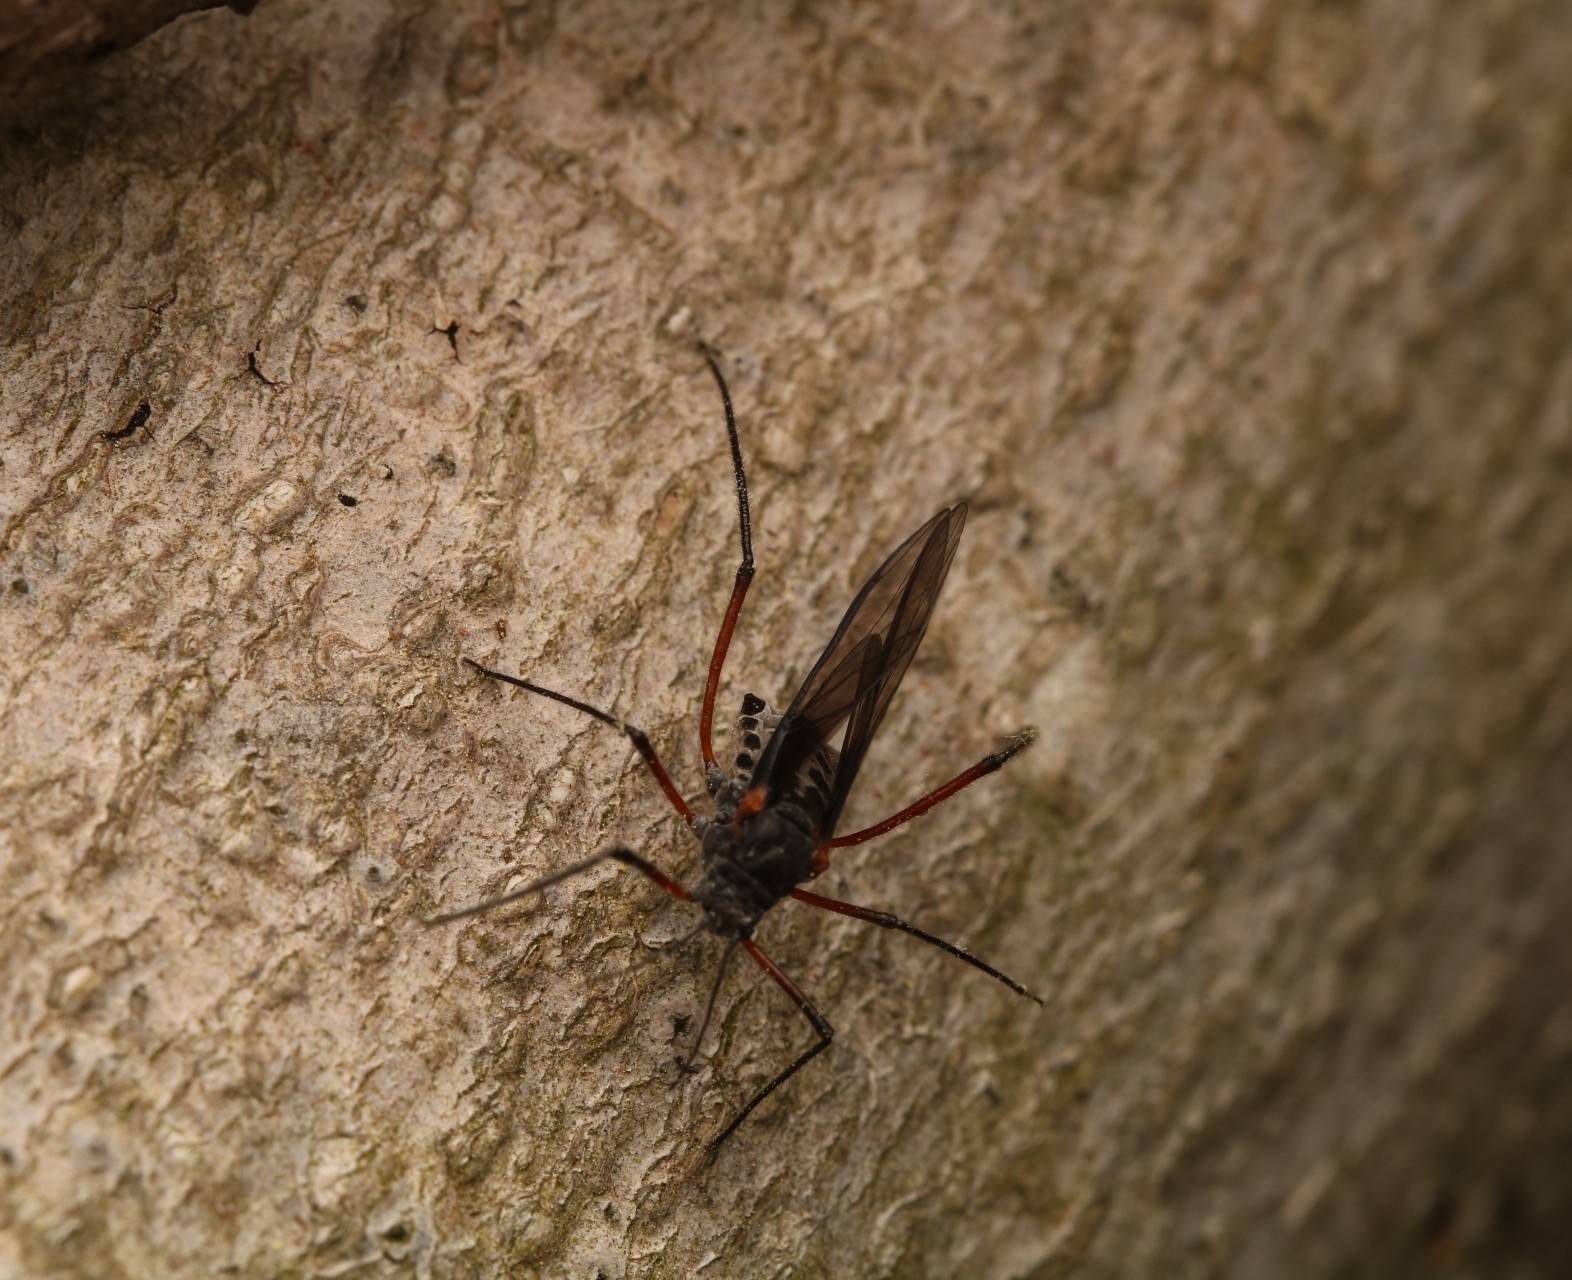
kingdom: Animalia
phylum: Arthropoda
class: Insecta
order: Hemiptera
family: Aphididae
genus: Longistigma
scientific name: Longistigma caryae
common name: Giant bark aphid
